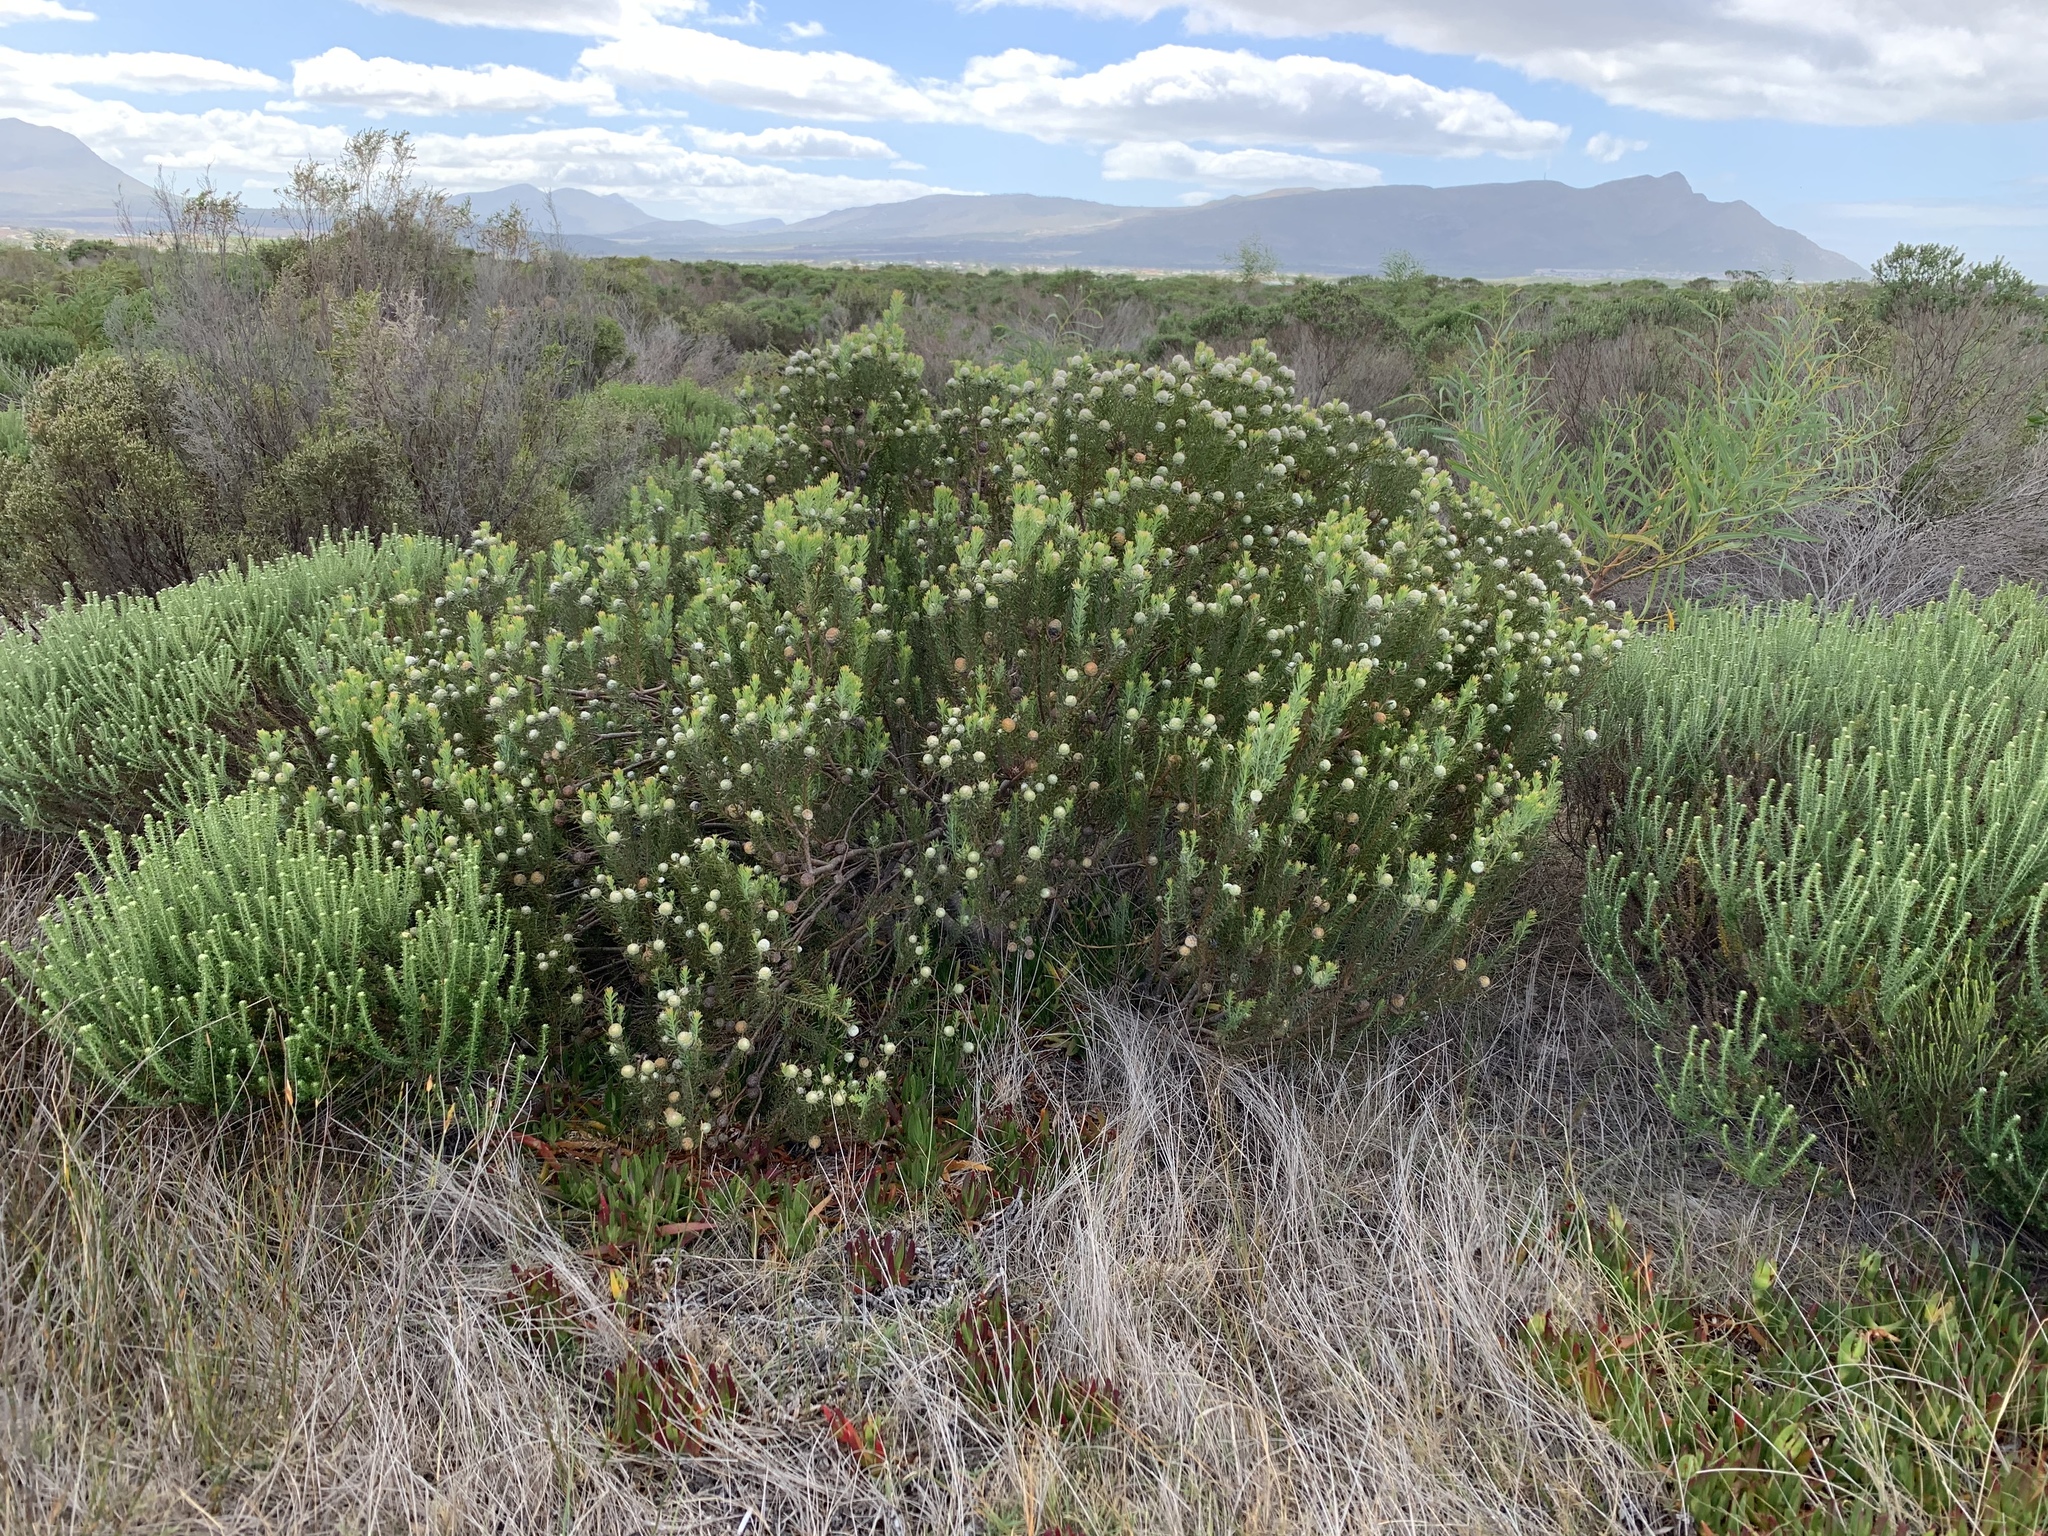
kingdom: Plantae
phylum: Tracheophyta
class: Magnoliopsida
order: Proteales
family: Proteaceae
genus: Leucadendron
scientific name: Leucadendron linifolium
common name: Line-leaf conebush
